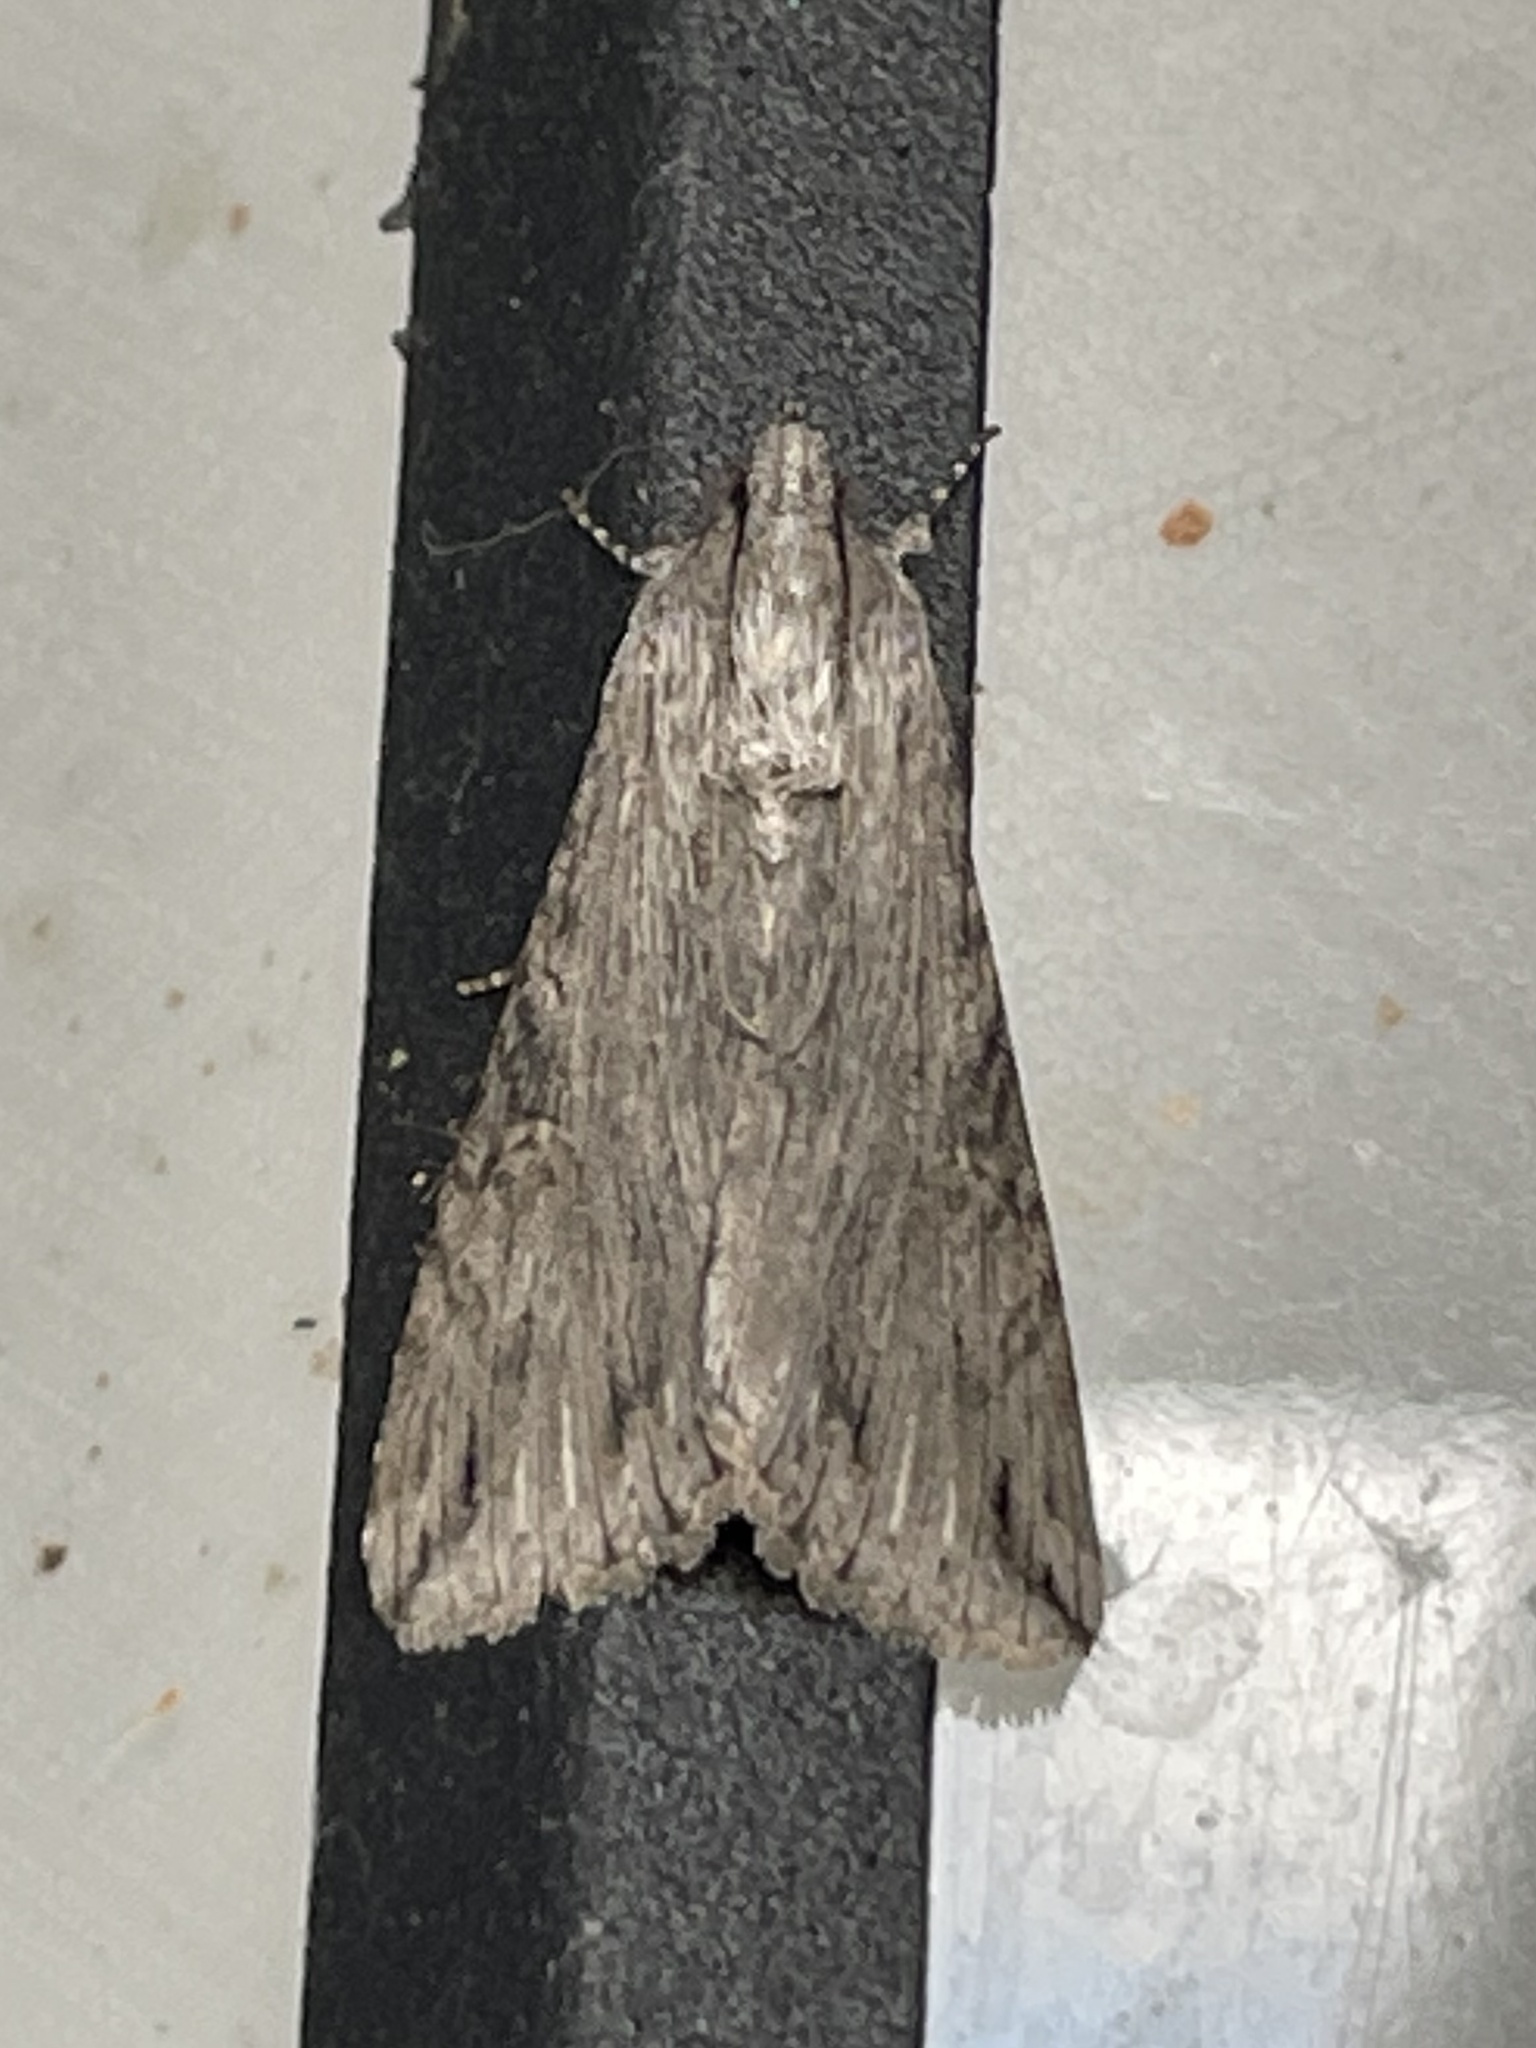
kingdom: Animalia
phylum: Arthropoda
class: Insecta
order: Lepidoptera
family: Erebidae
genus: Melipotis
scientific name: Melipotis jucunda
